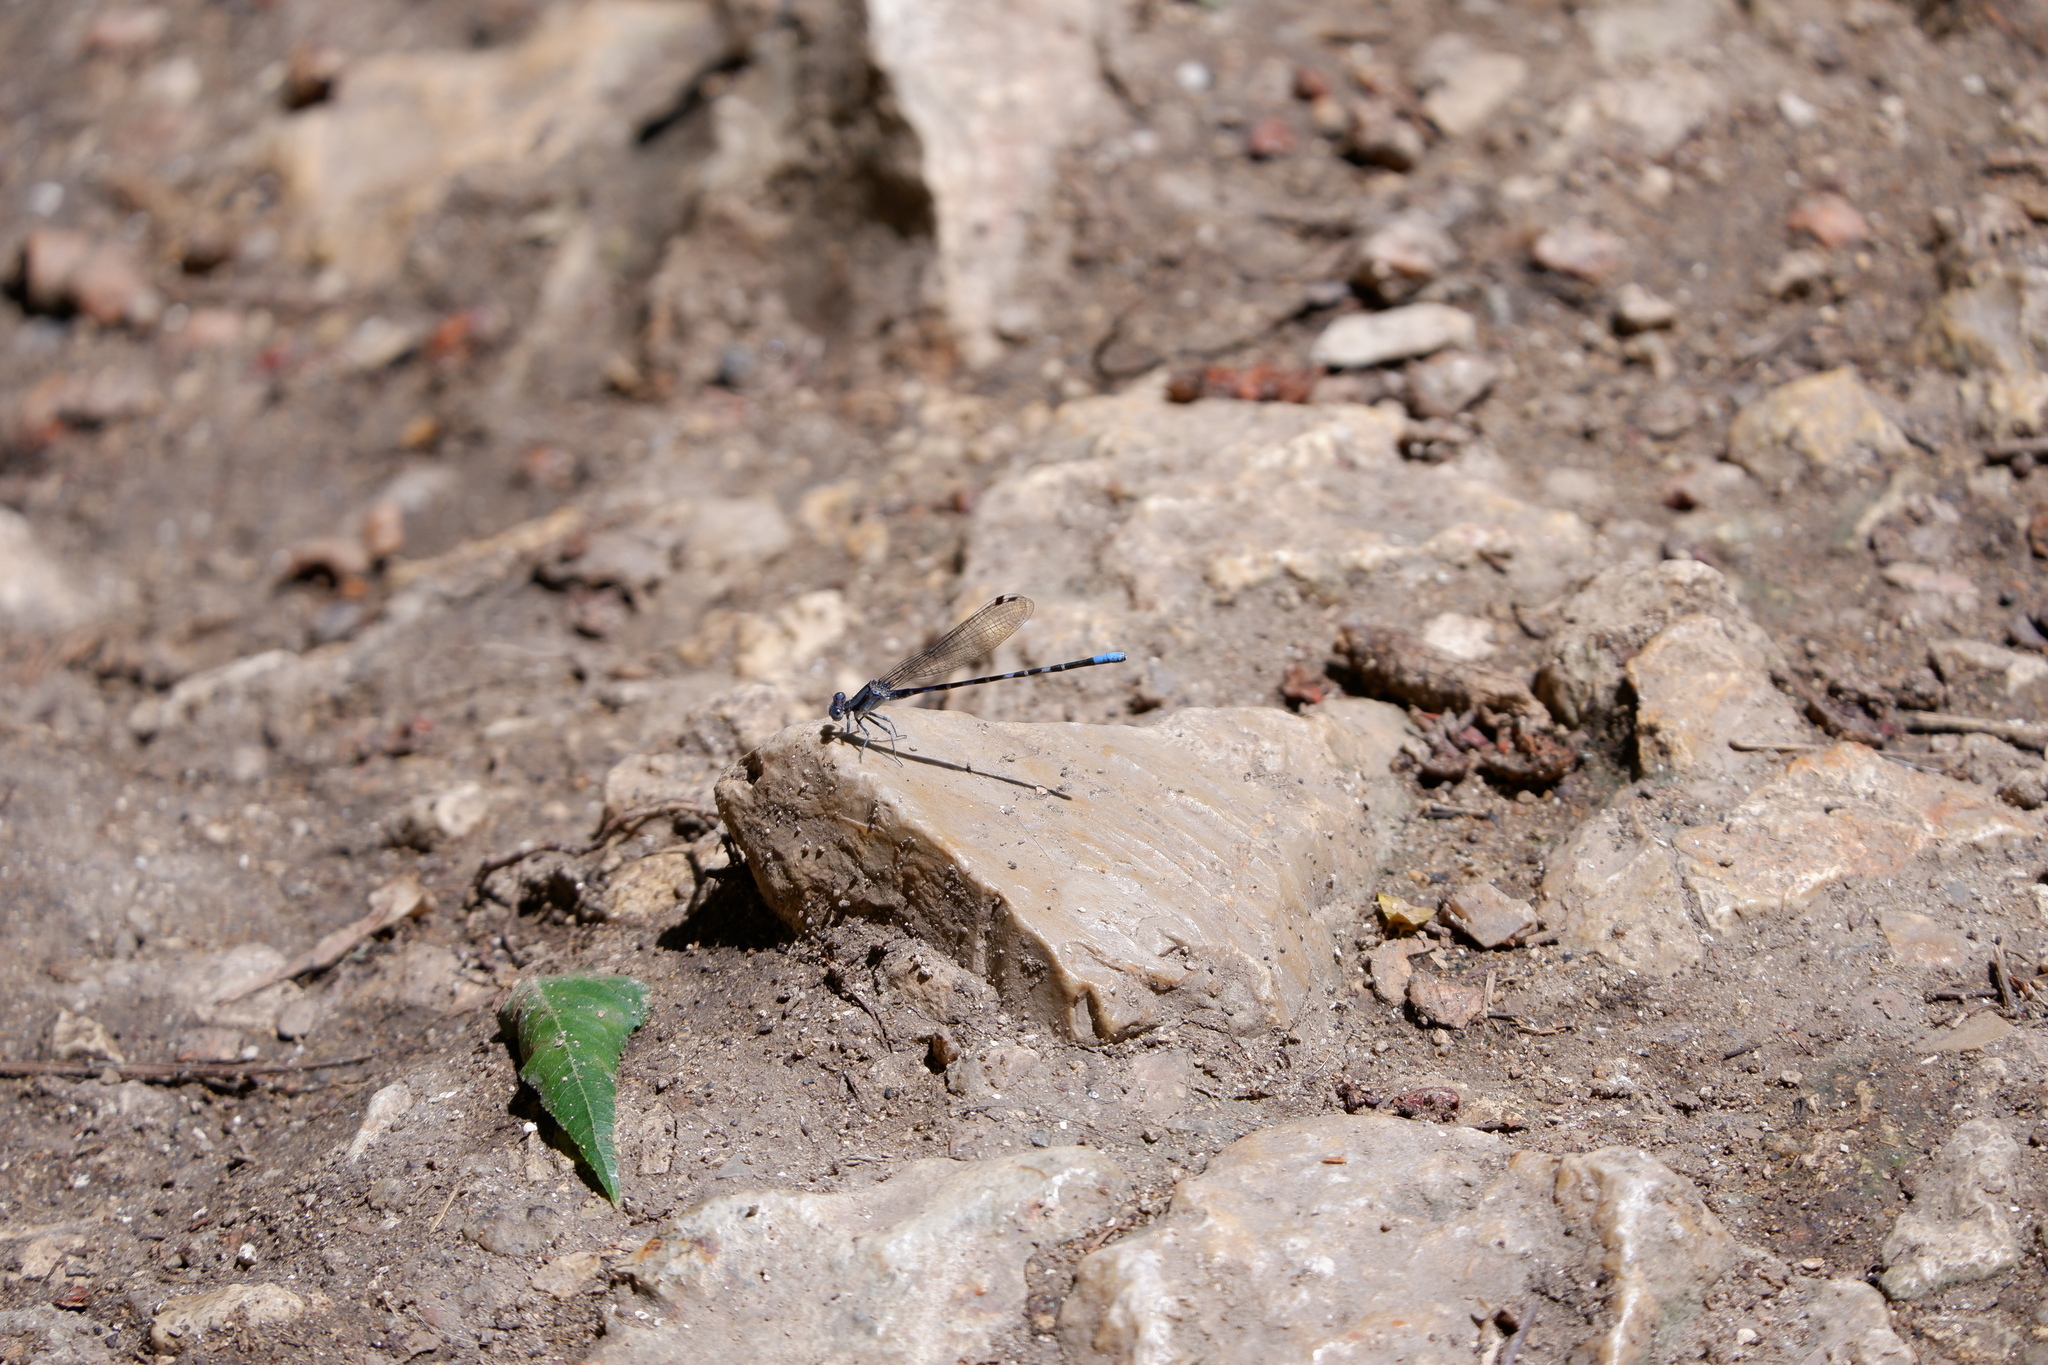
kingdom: Animalia
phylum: Arthropoda
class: Insecta
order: Odonata
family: Coenagrionidae
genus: Argia
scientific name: Argia immunda
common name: Kiowa dancer
